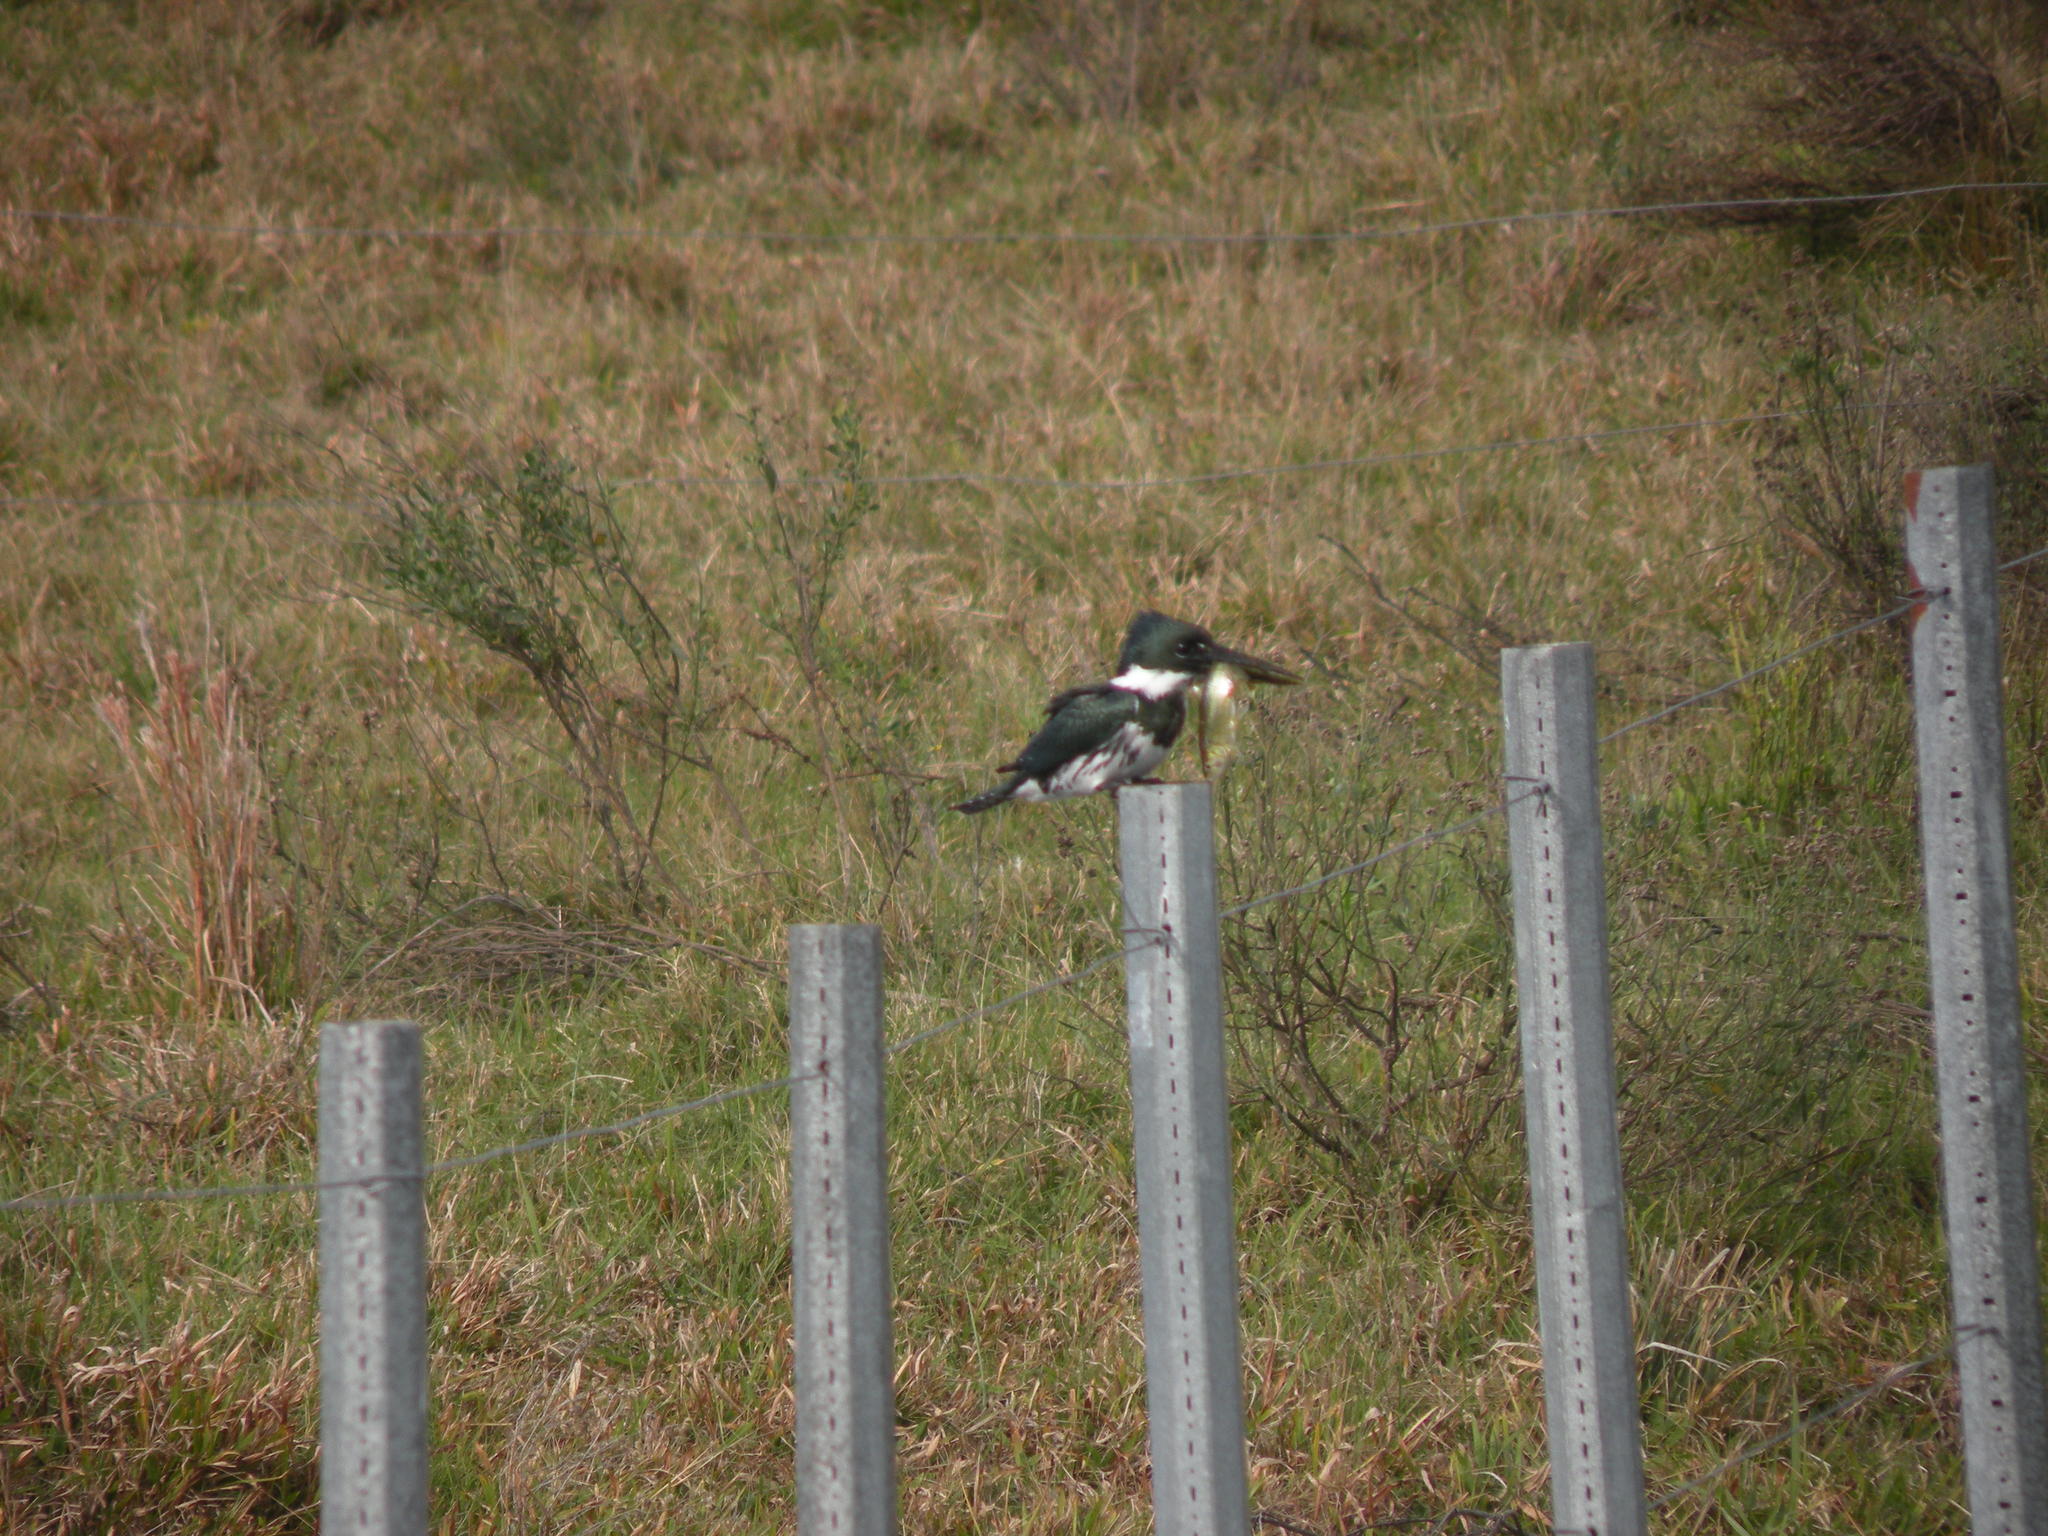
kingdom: Animalia
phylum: Chordata
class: Aves
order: Coraciiformes
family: Alcedinidae
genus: Chloroceryle
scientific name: Chloroceryle amazona
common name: Amazon kingfisher
